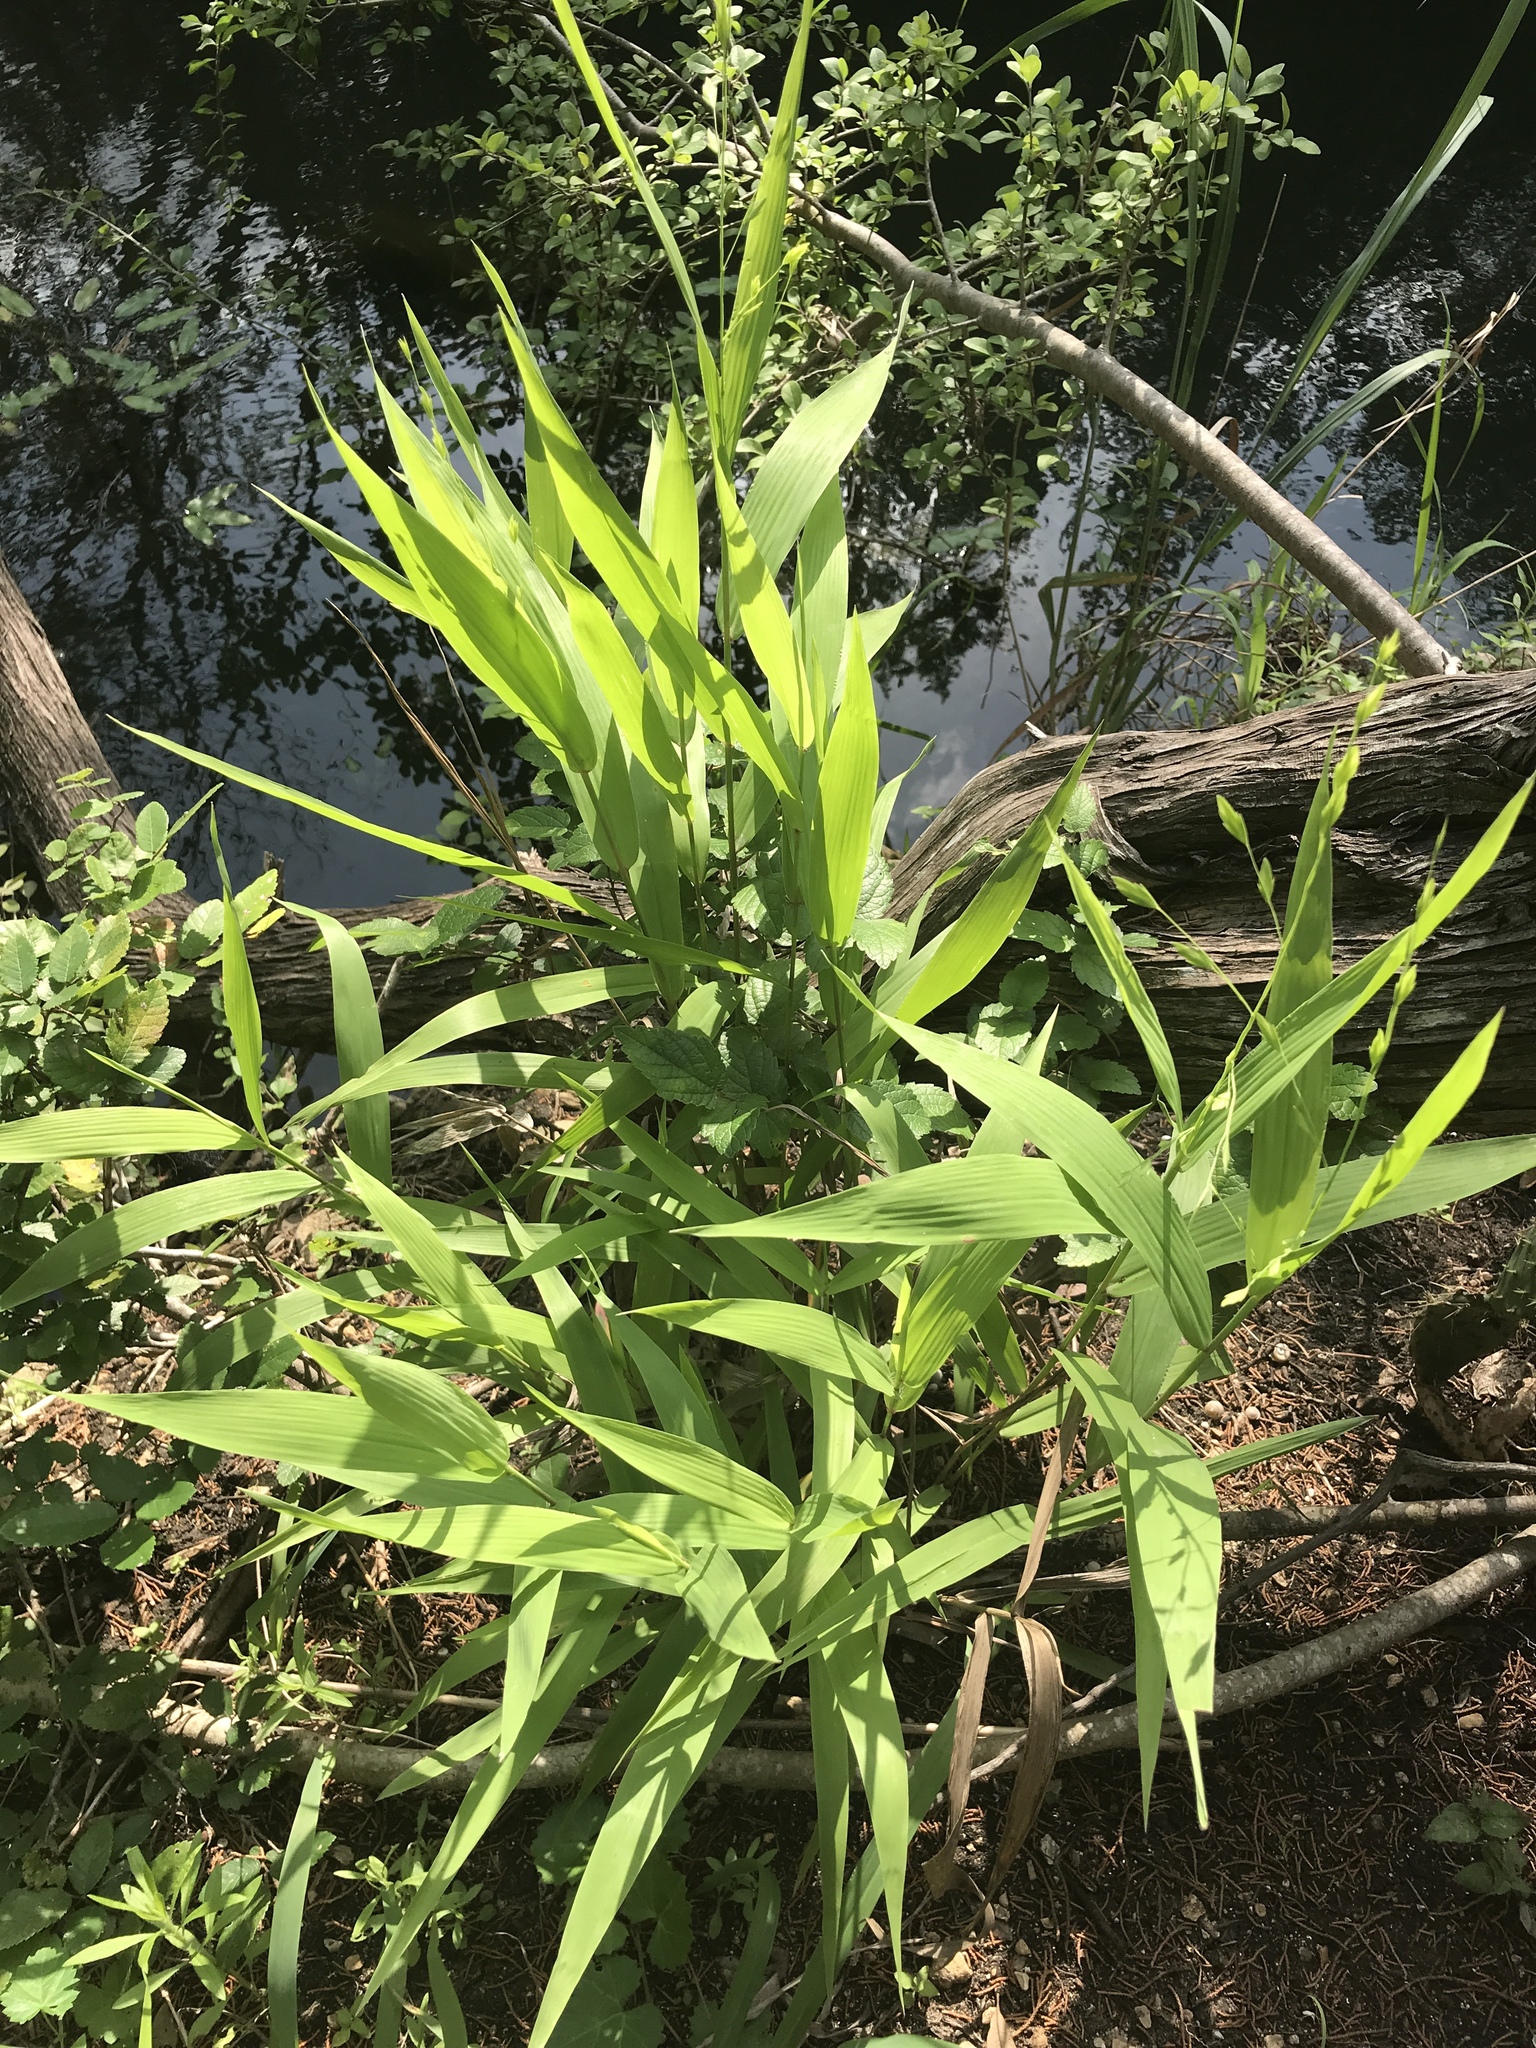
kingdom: Plantae
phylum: Tracheophyta
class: Liliopsida
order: Poales
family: Poaceae
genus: Chasmanthium
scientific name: Chasmanthium latifolium
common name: Broad-leaved chasmanthium
